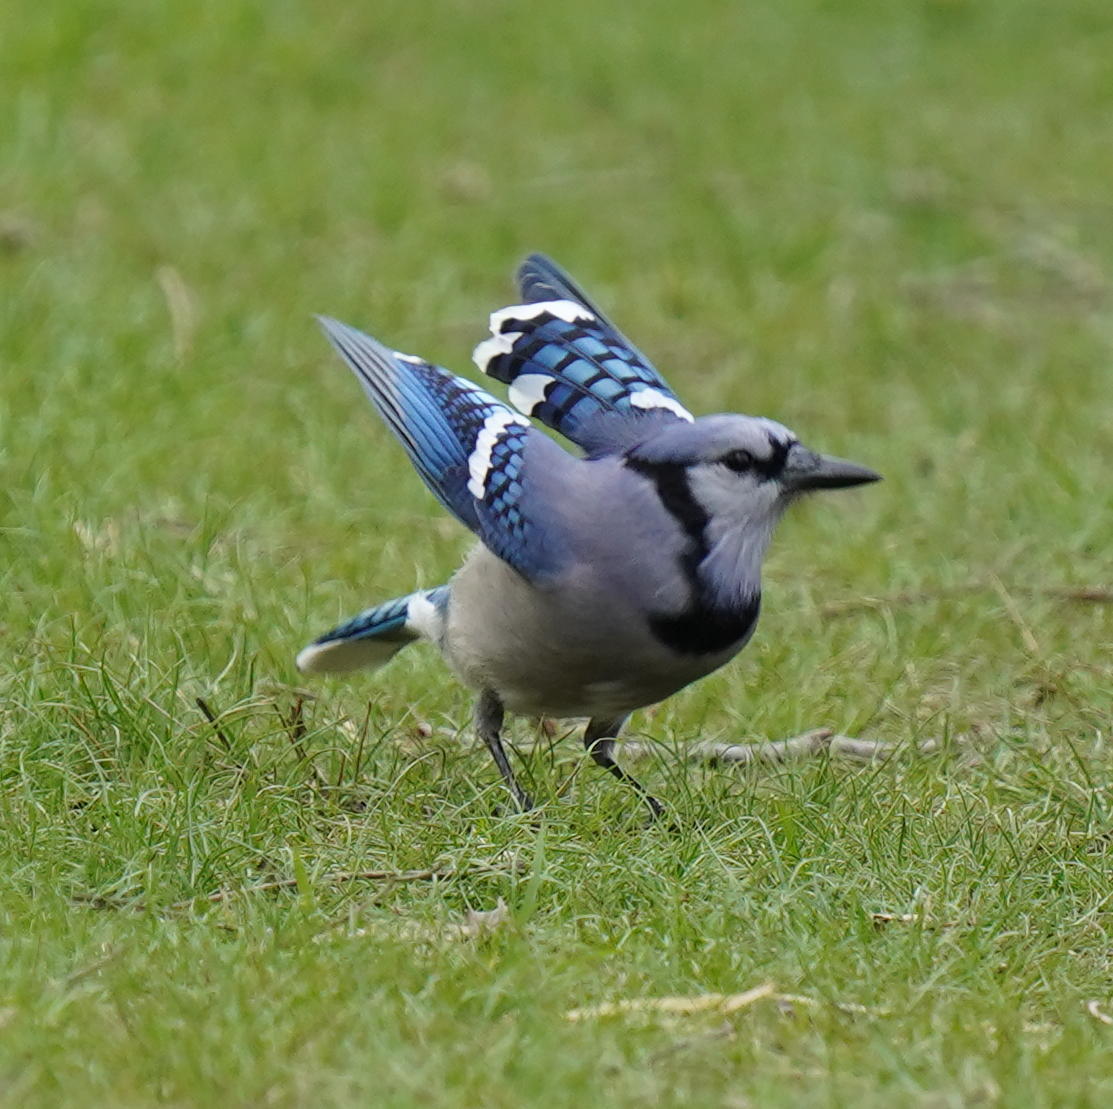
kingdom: Animalia
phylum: Chordata
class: Aves
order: Passeriformes
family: Corvidae
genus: Cyanocitta
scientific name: Cyanocitta cristata
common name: Blue jay
